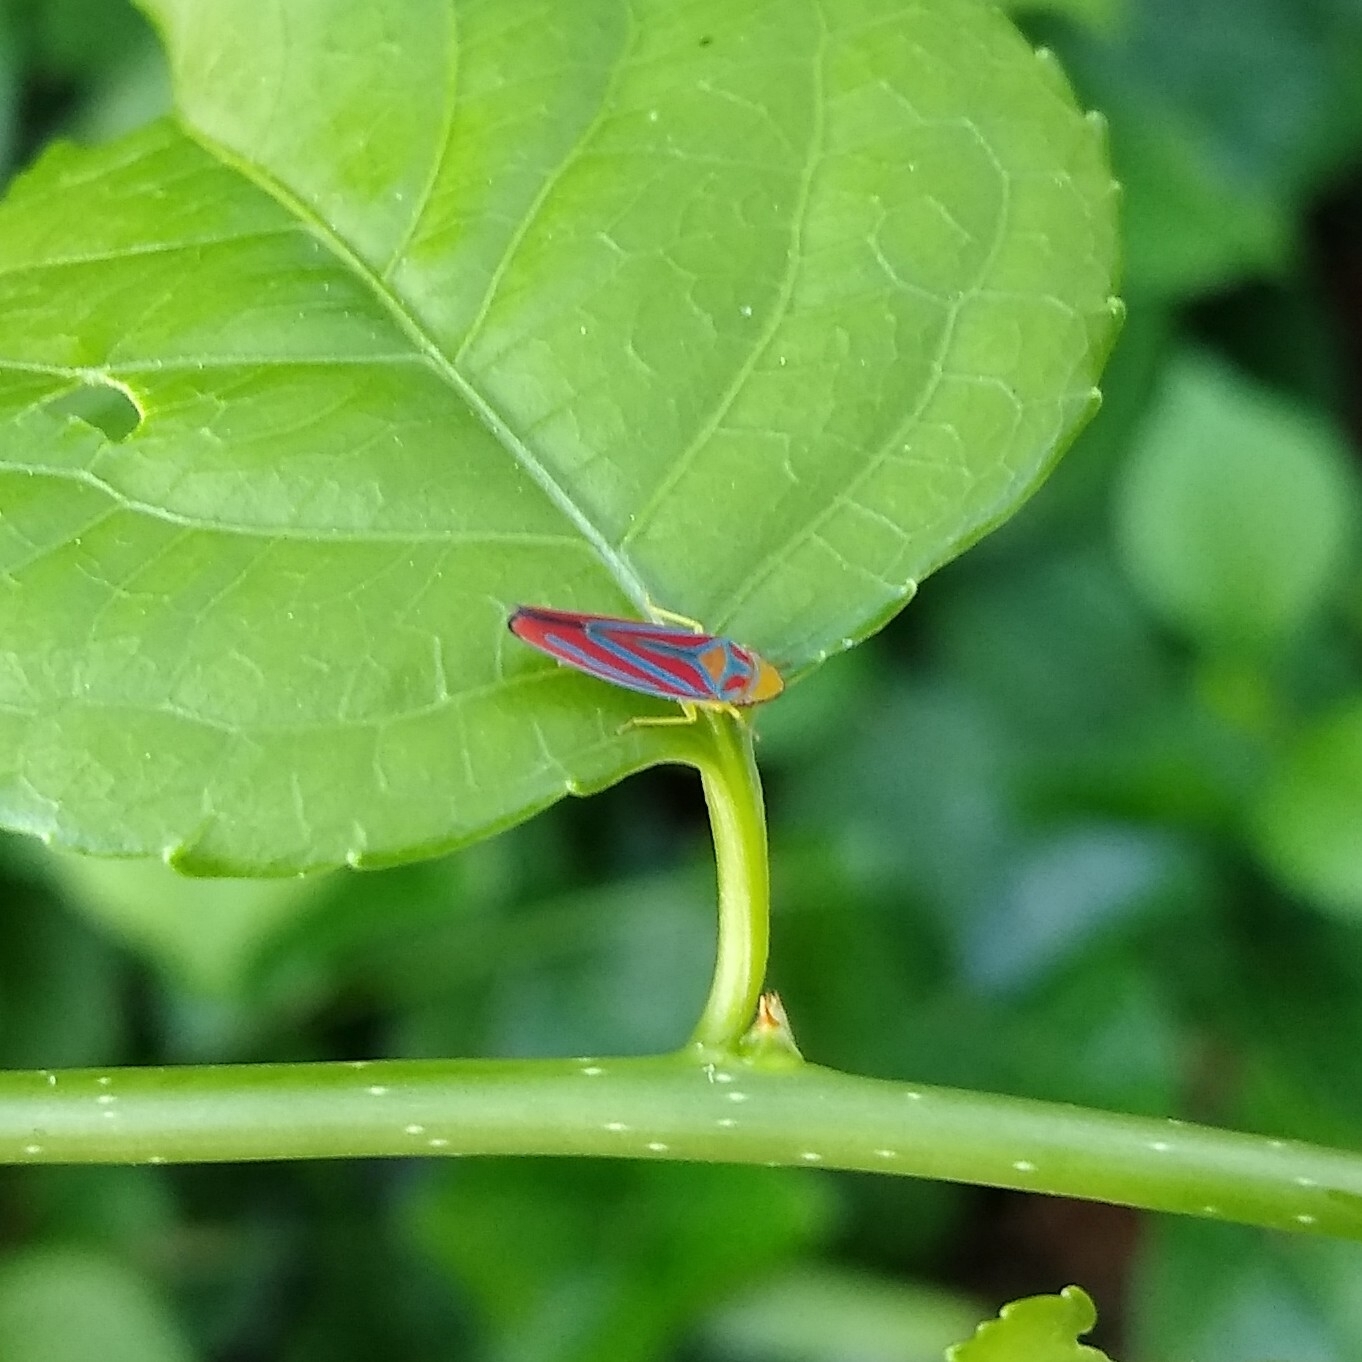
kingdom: Animalia
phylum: Arthropoda
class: Insecta
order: Hemiptera
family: Cicadellidae
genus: Graphocephala
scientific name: Graphocephala coccinea
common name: Candy-striped leafhopper
